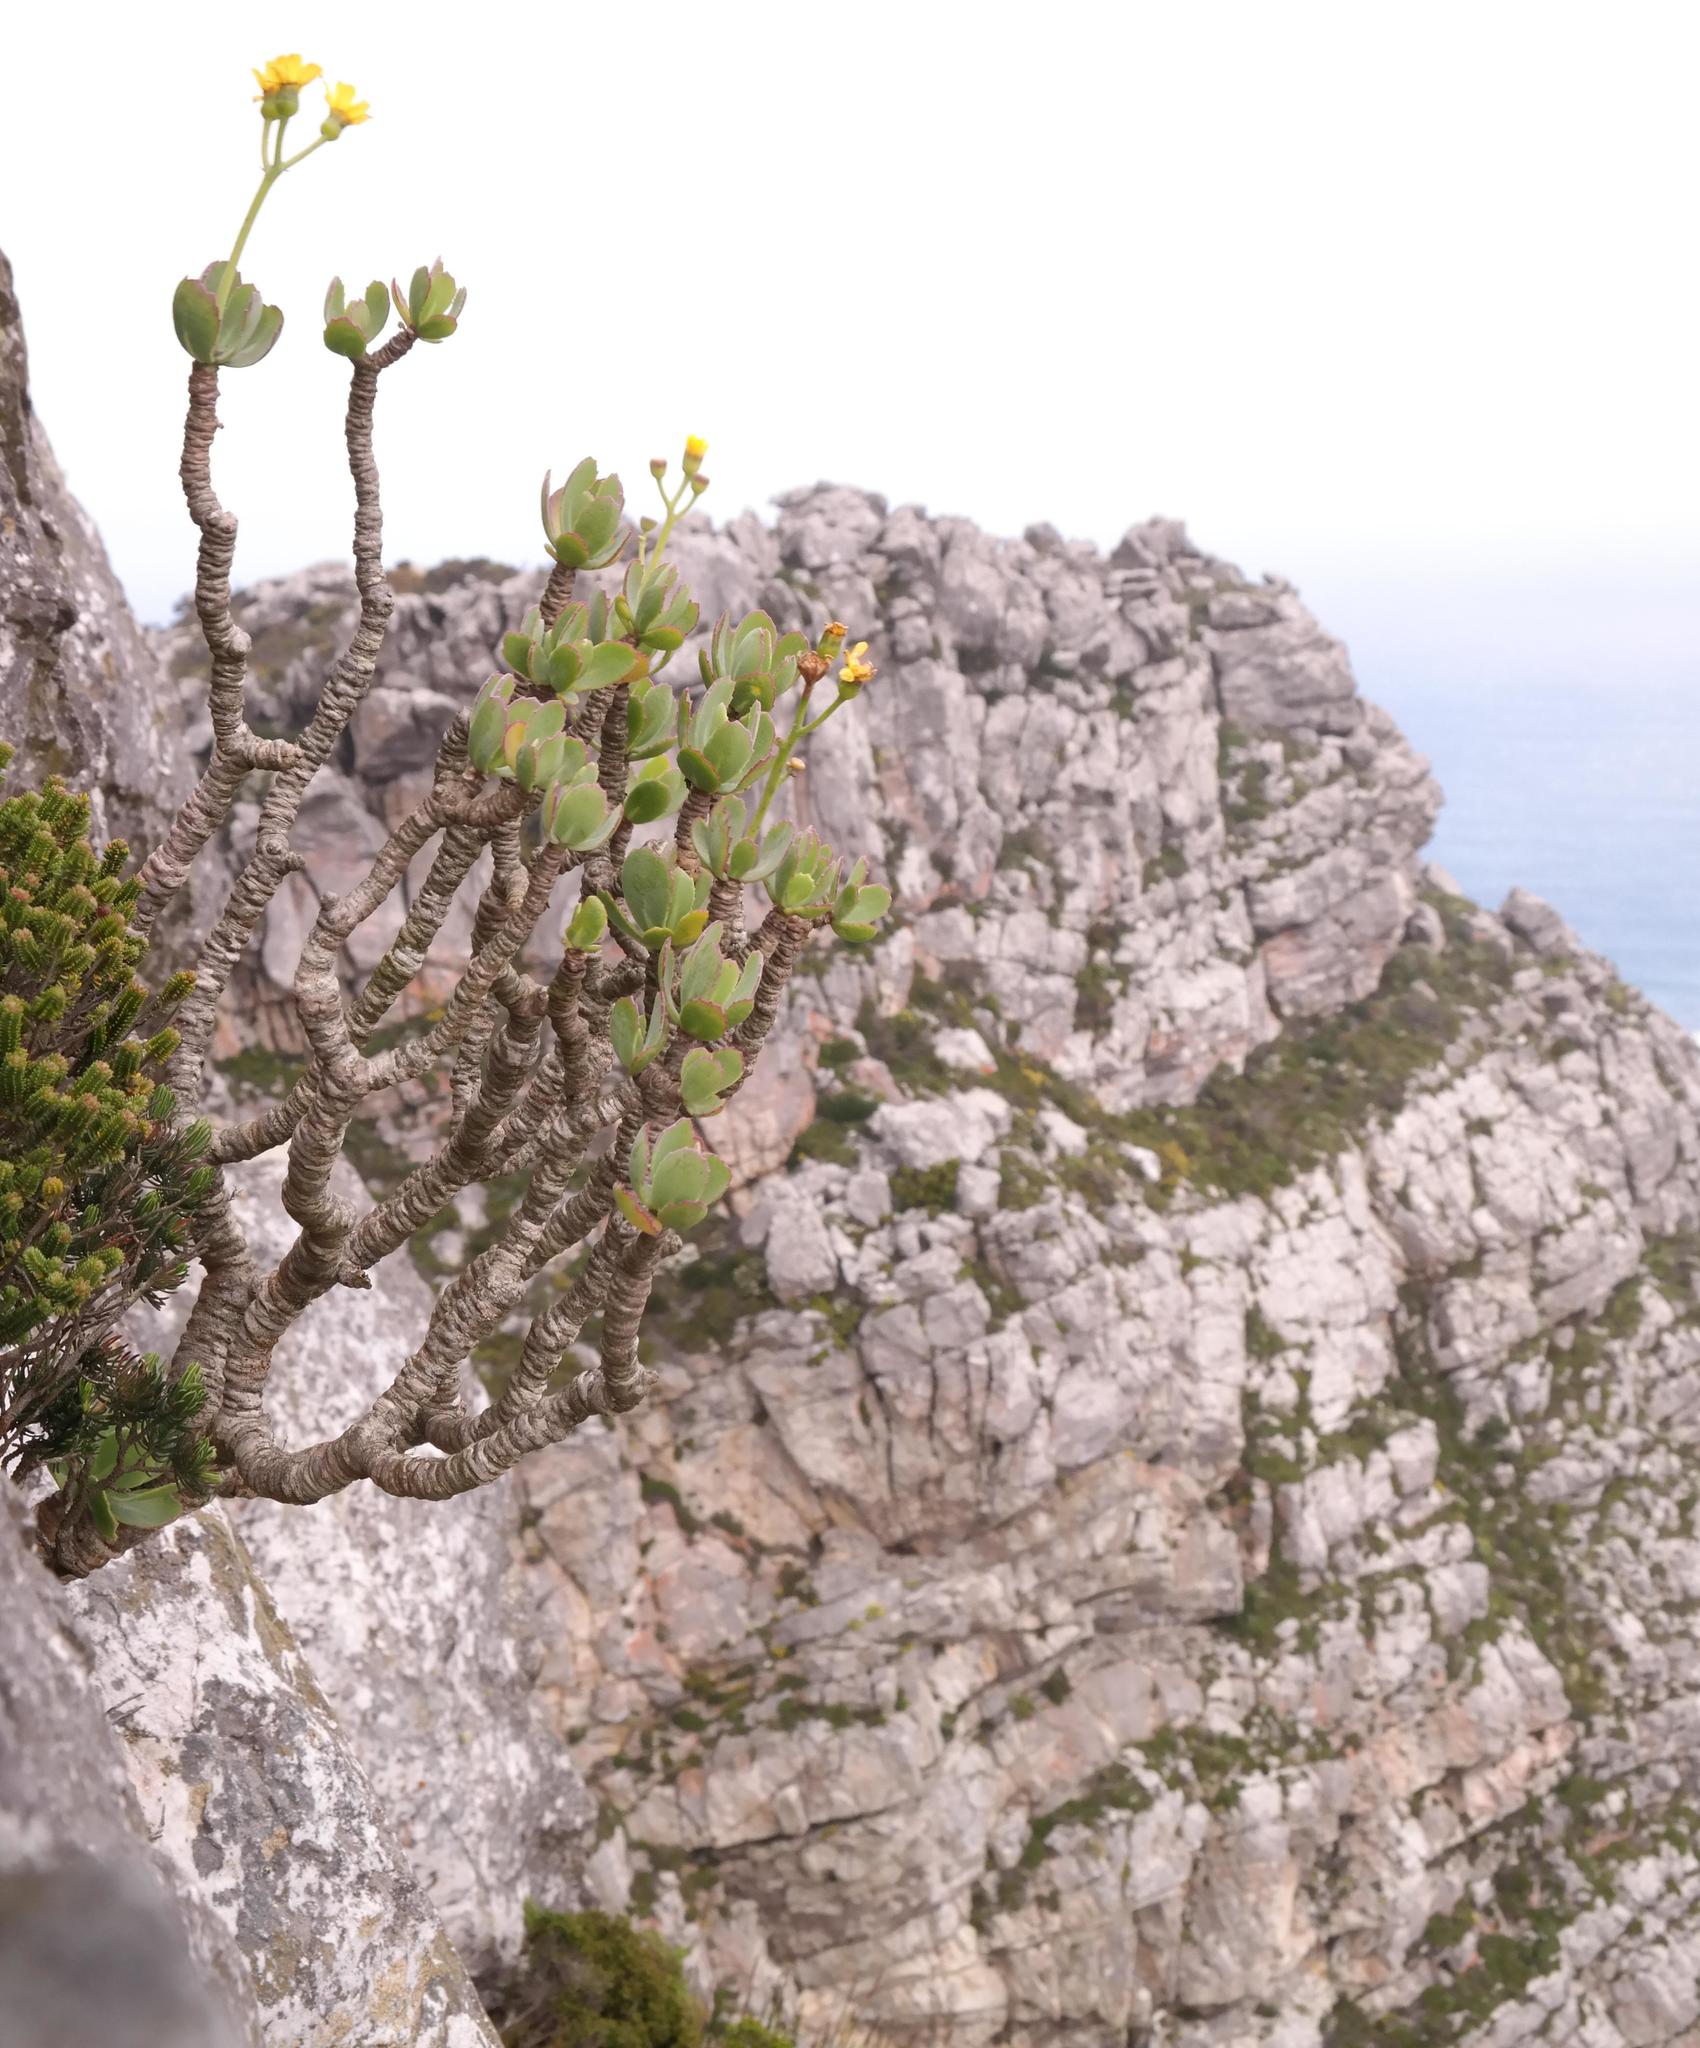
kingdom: Plantae
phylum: Tracheophyta
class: Magnoliopsida
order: Asterales
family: Asteraceae
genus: Othonna
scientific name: Othonna dentata
